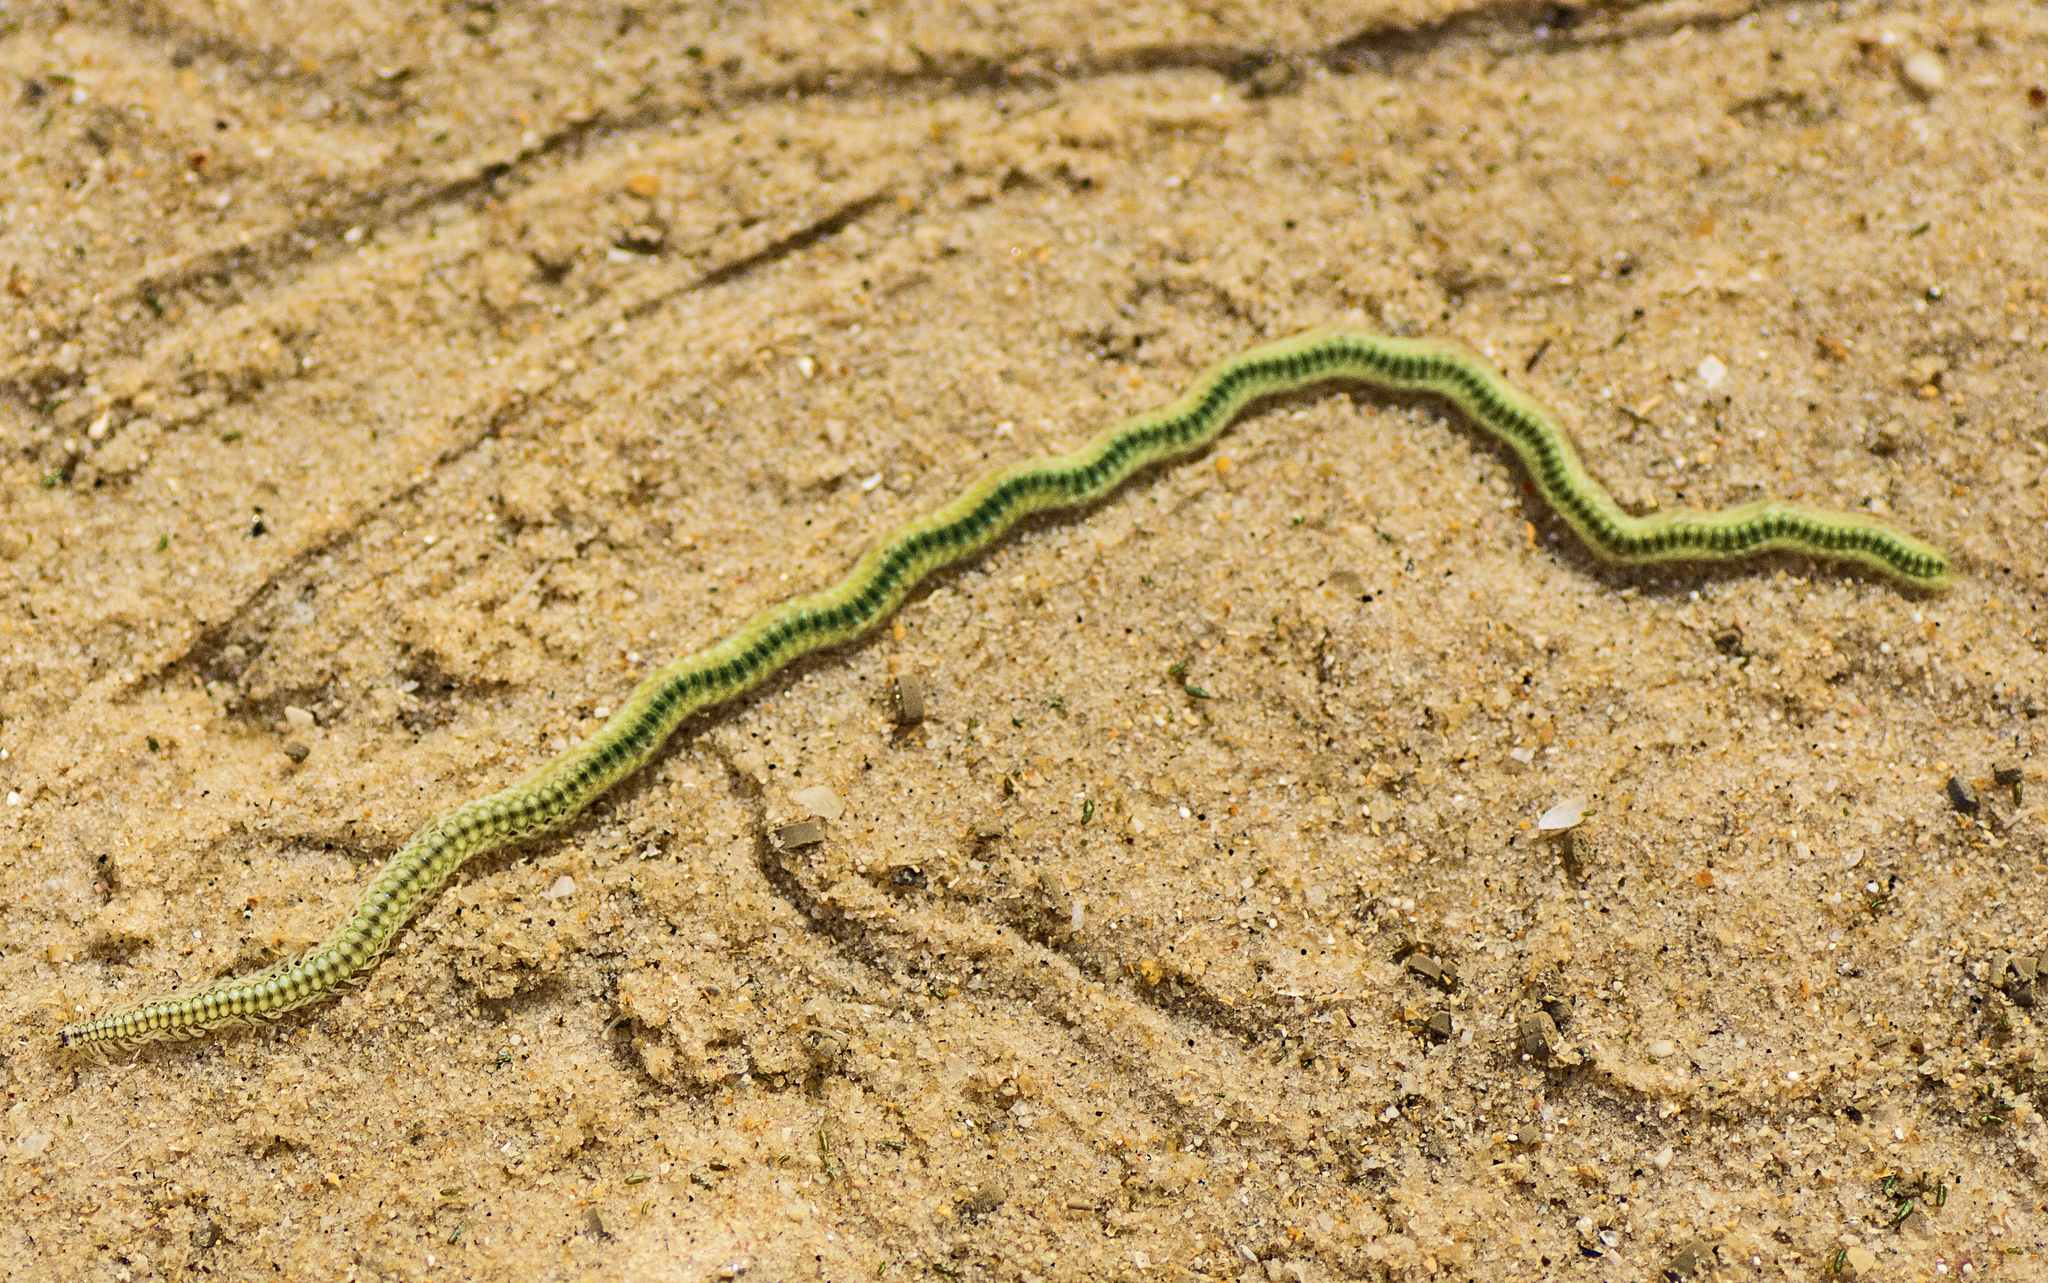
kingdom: Animalia
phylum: Annelida
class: Polychaeta
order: Phyllodocida
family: Phyllodocidae
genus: Phyllodoce
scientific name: Phyllodoce novaehollandiae
